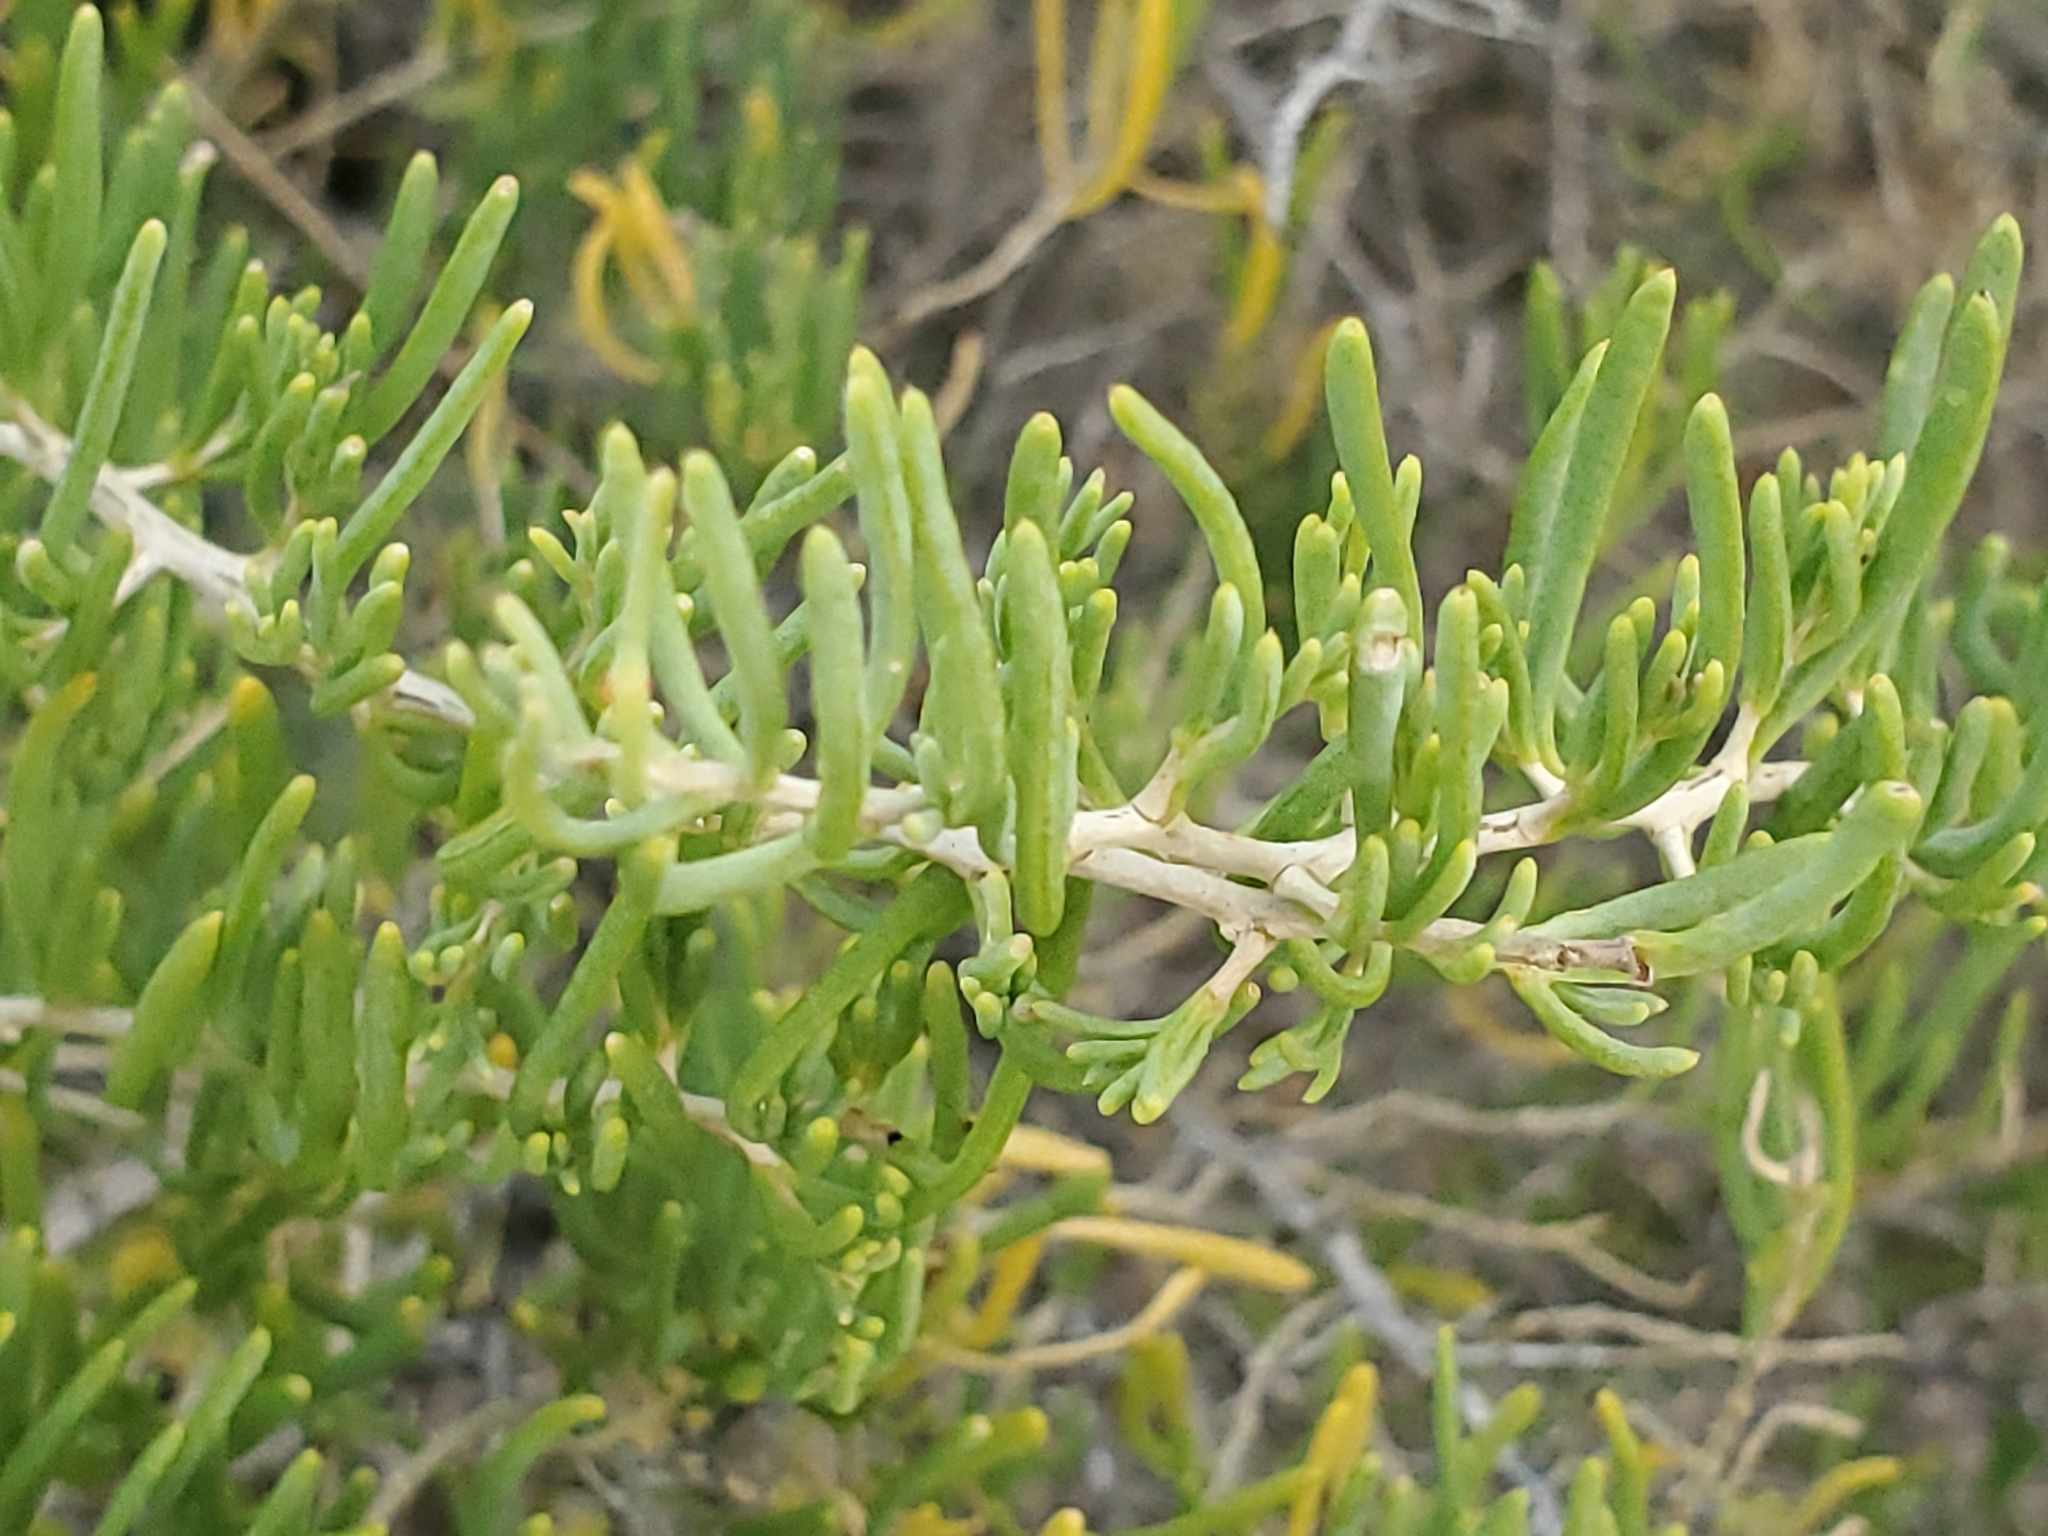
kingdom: Plantae
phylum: Tracheophyta
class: Magnoliopsida
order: Caryophyllales
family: Sarcobataceae
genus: Sarcobatus
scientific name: Sarcobatus vermiculatus
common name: Greasewood
